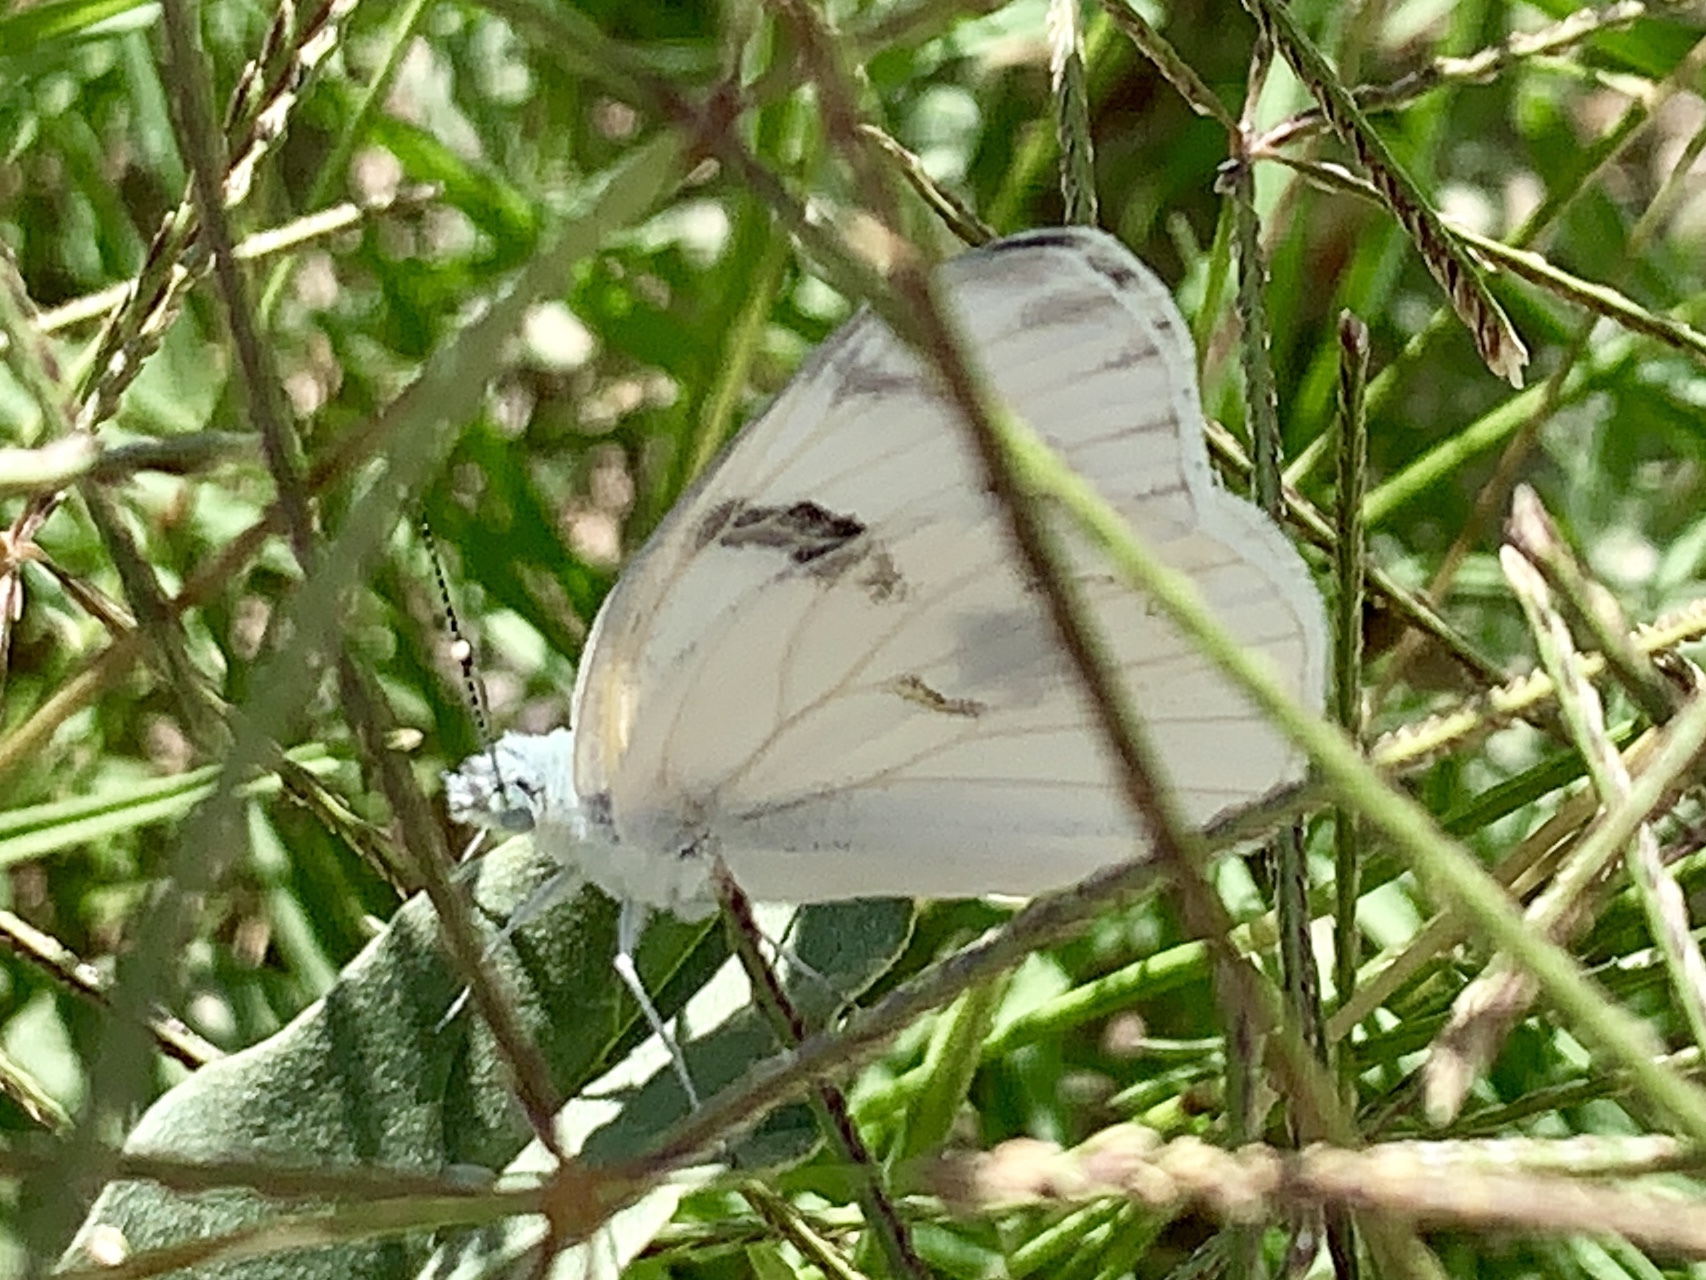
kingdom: Animalia
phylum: Arthropoda
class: Insecta
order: Lepidoptera
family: Pieridae
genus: Pontia
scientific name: Pontia protodice
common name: Checkered white
